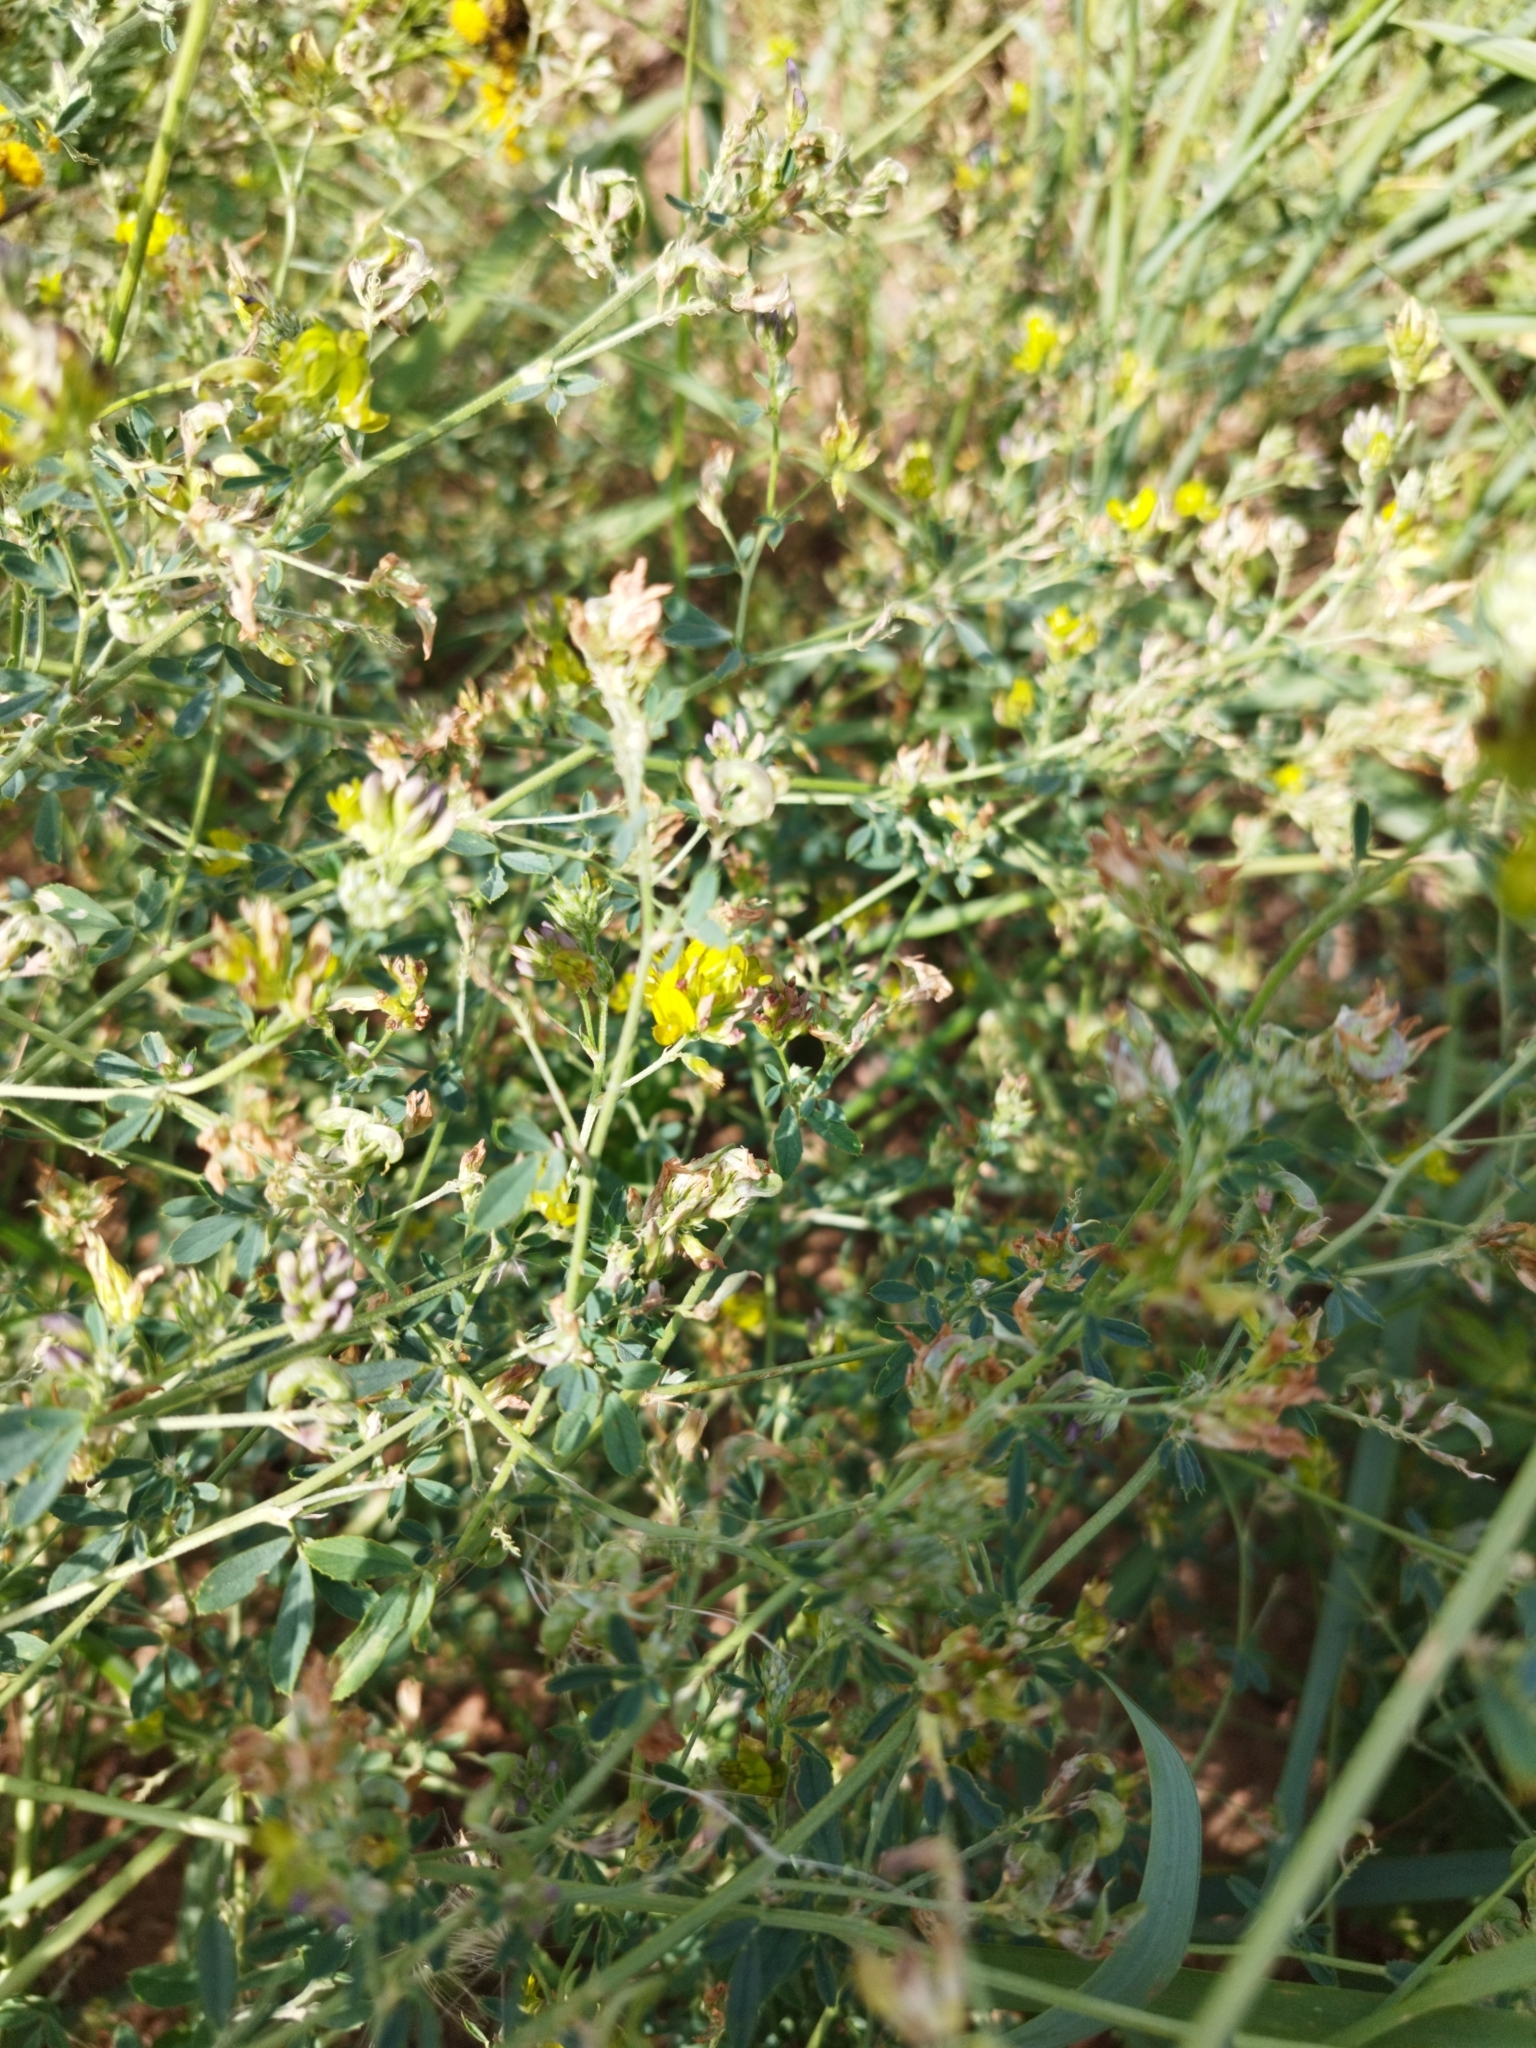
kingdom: Plantae
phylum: Tracheophyta
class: Magnoliopsida
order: Fabales
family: Fabaceae
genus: Medicago
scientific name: Medicago falcata
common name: Sickle medick
